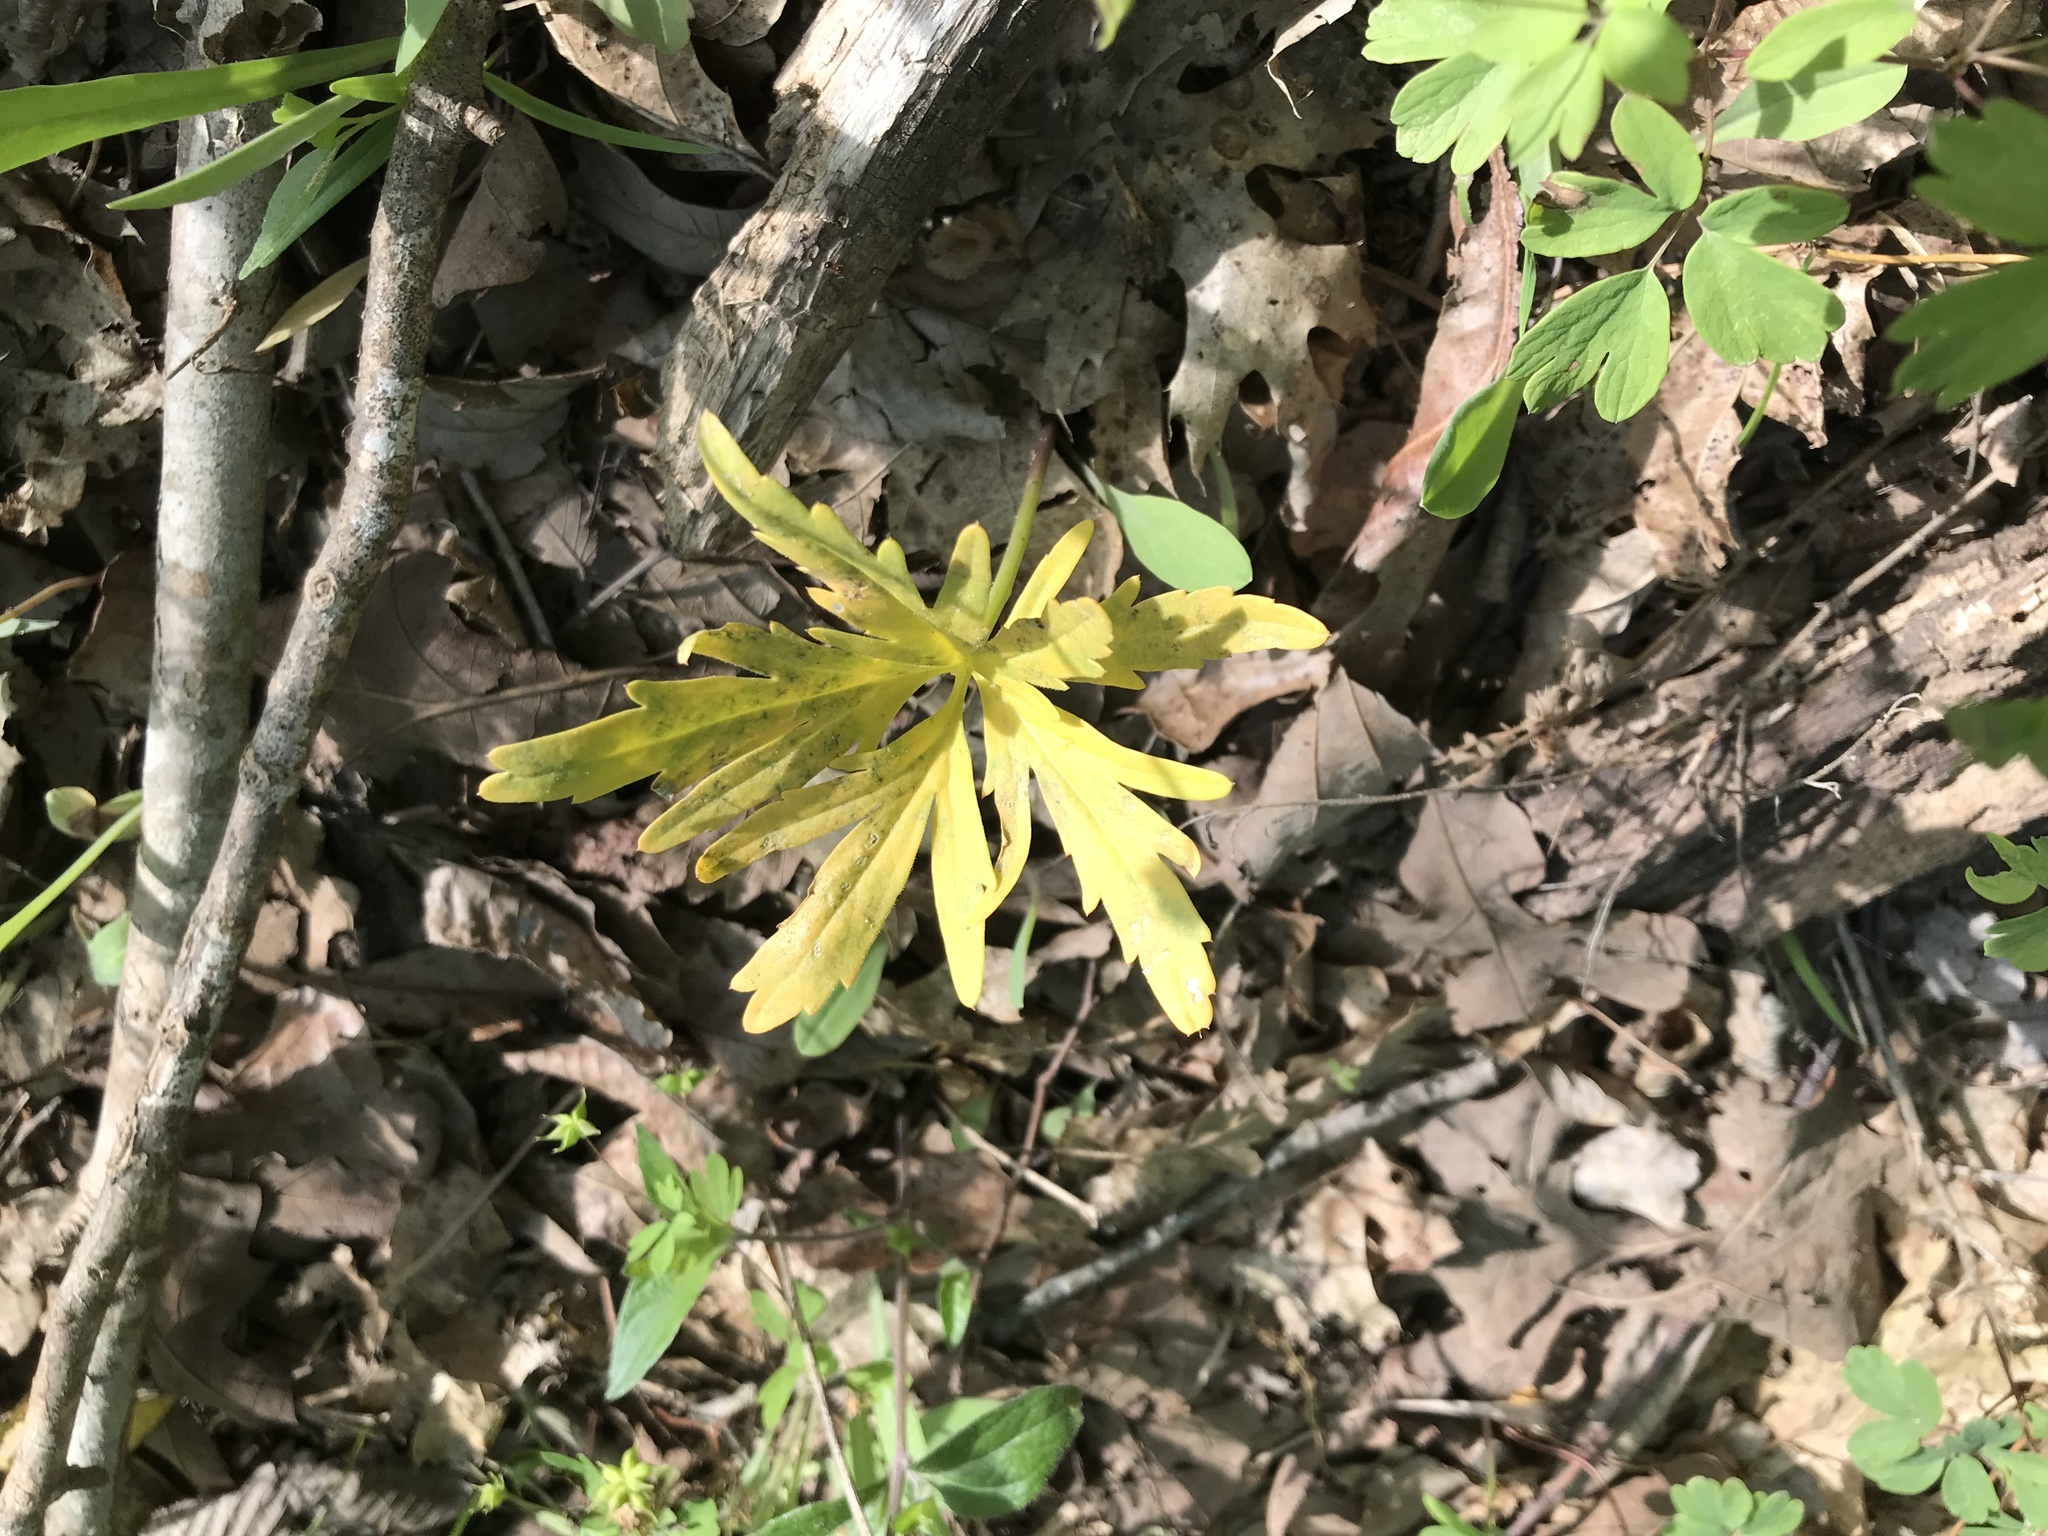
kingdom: Plantae
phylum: Tracheophyta
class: Magnoliopsida
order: Brassicales
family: Brassicaceae
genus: Cardamine
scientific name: Cardamine concatenata
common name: Cut-leaf toothcup
